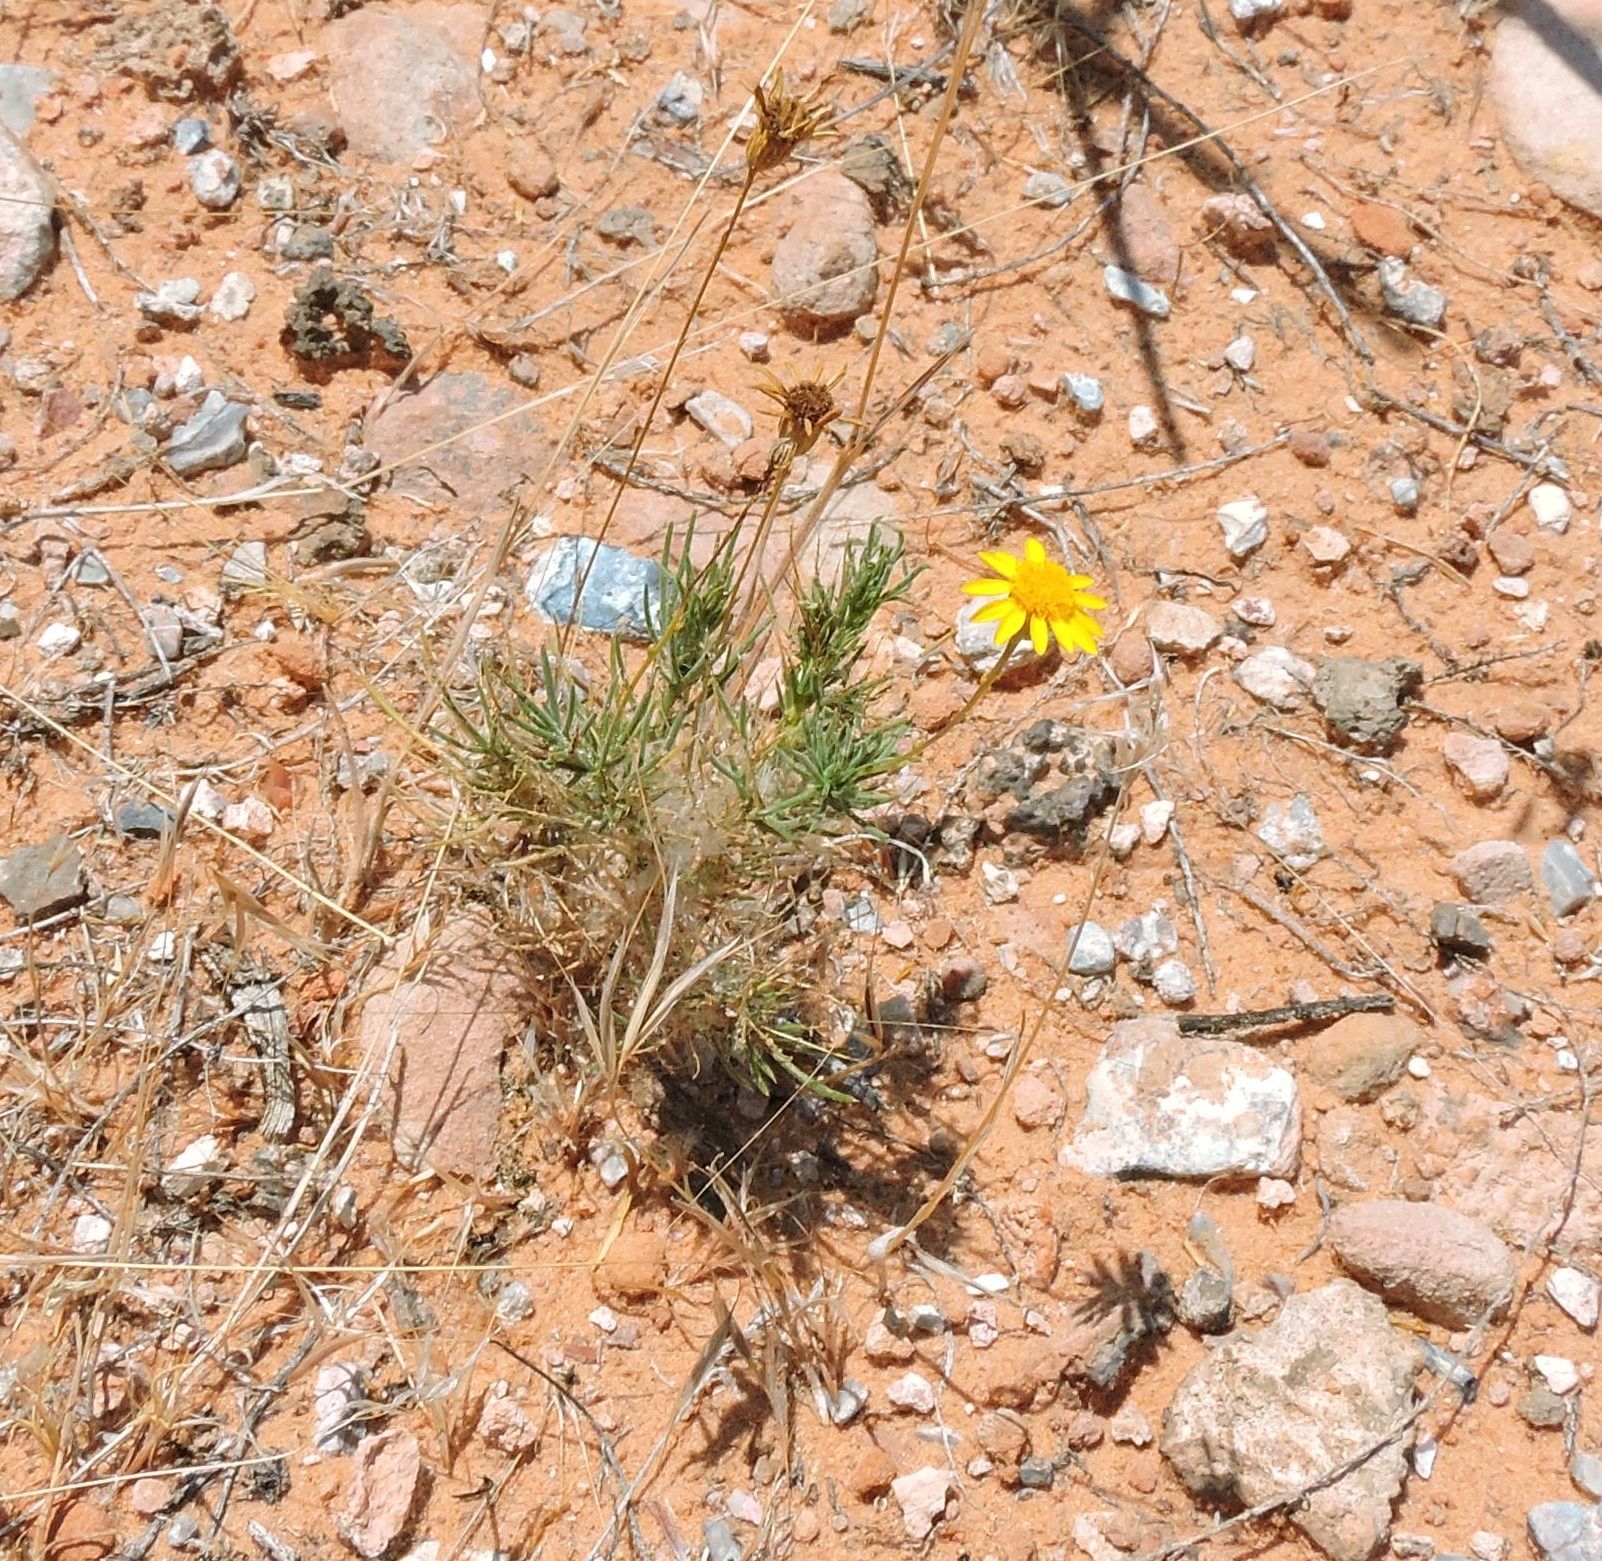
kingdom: Plantae
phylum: Tracheophyta
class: Magnoliopsida
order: Asterales
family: Asteraceae
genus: Thymophylla
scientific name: Thymophylla pentachaeta
